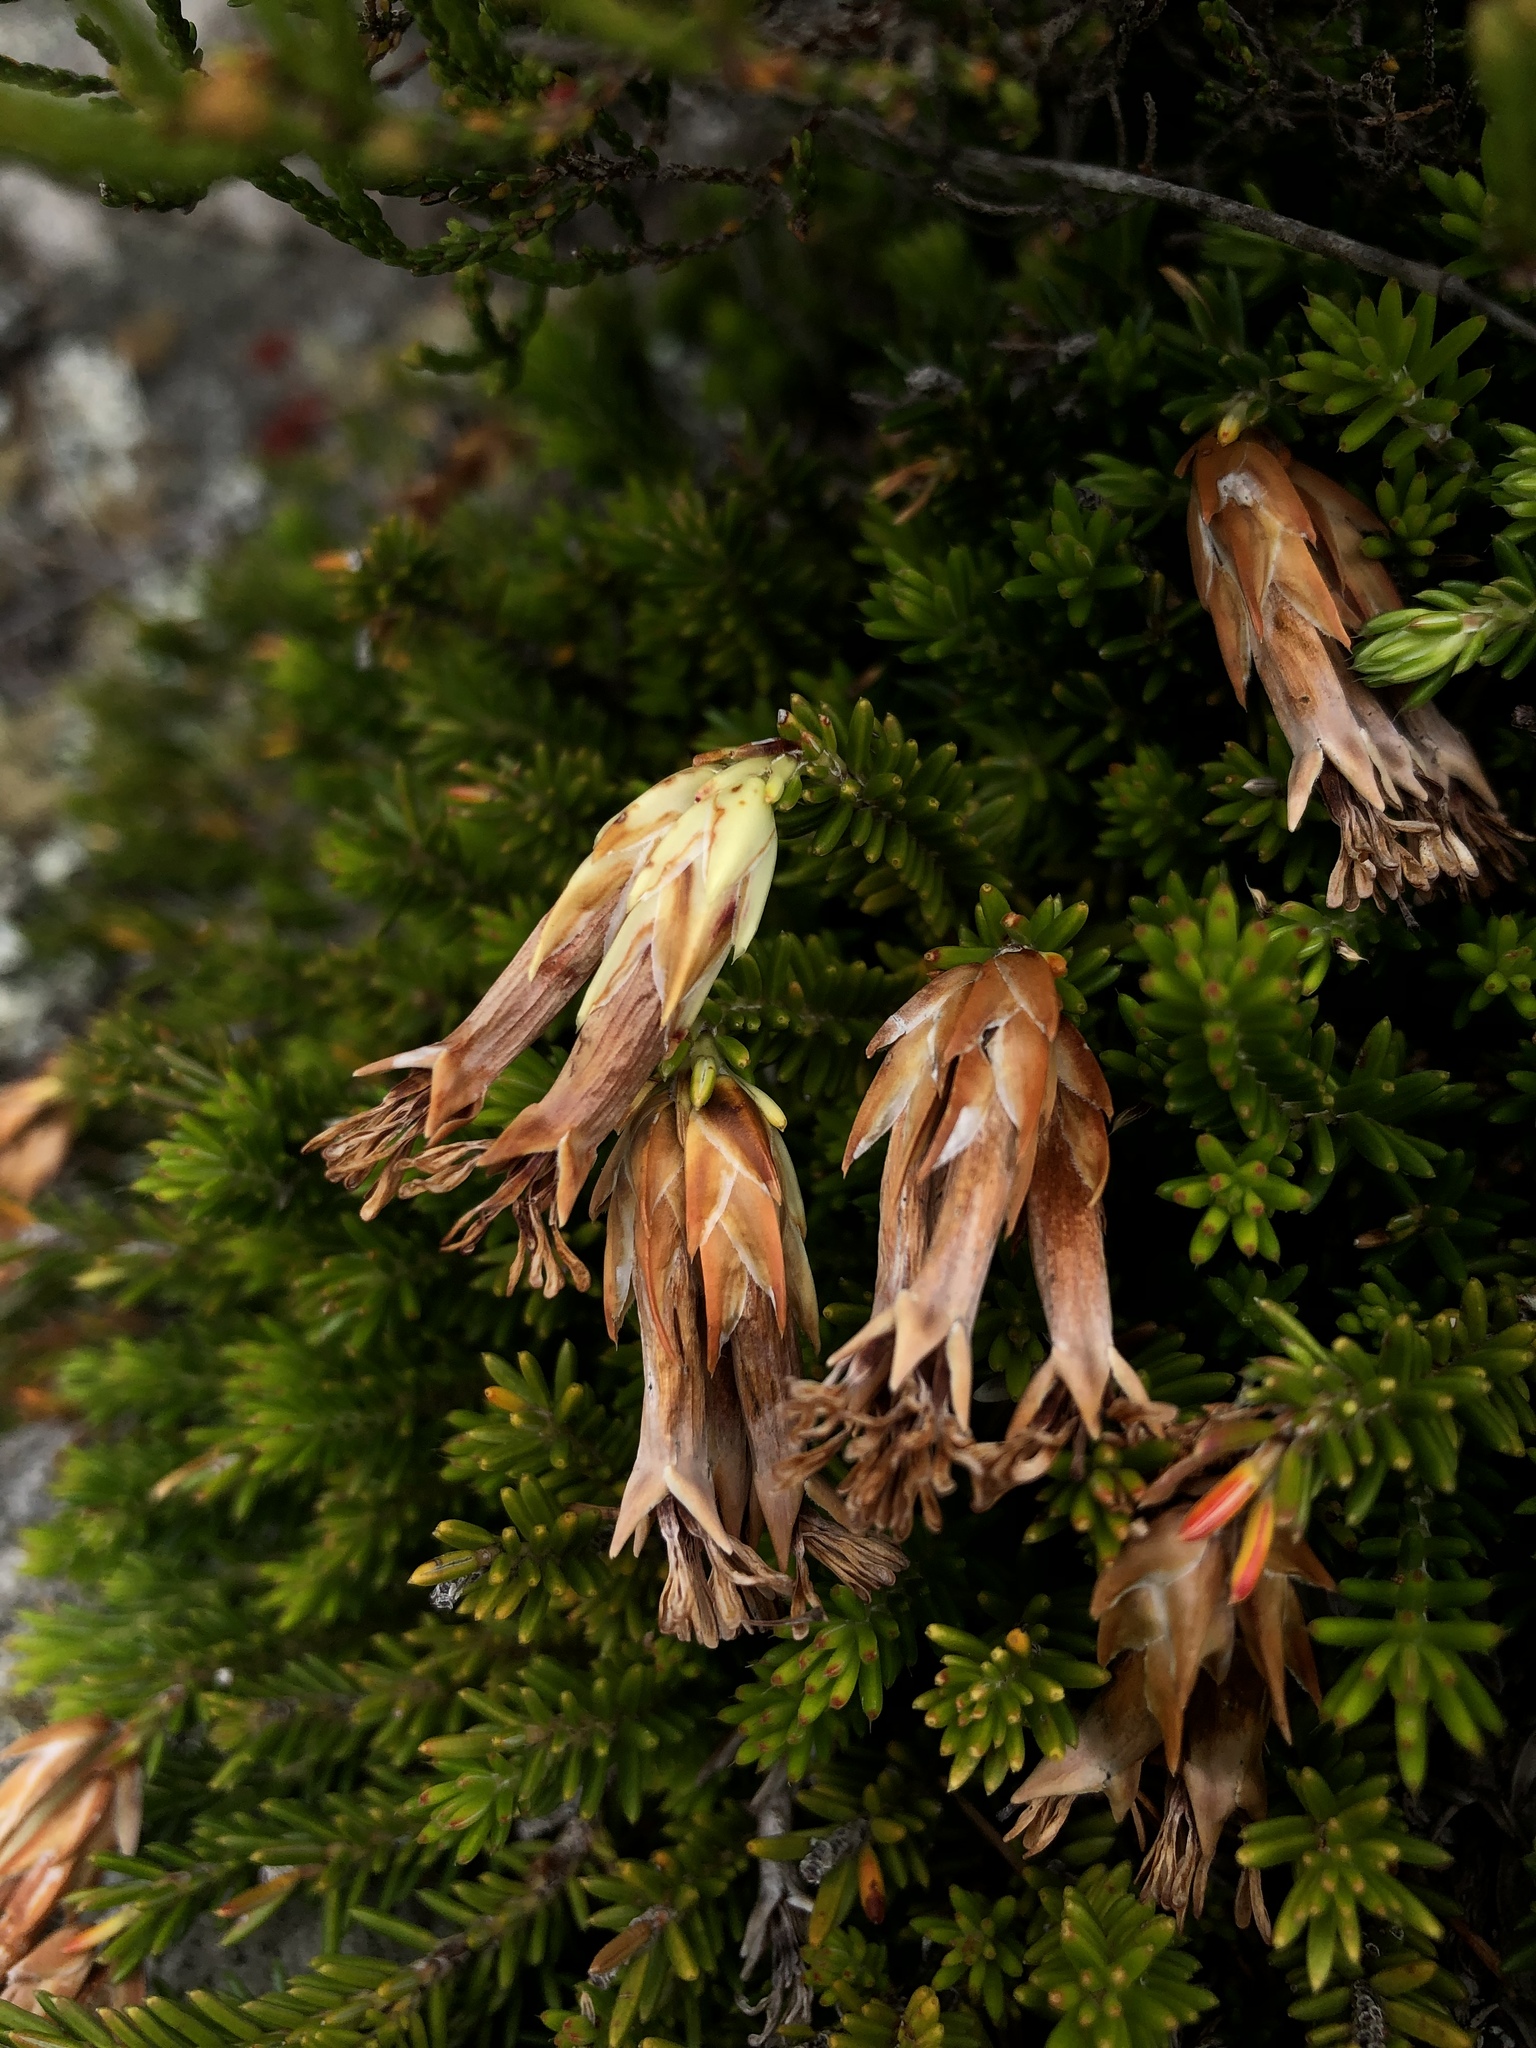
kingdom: Plantae
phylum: Tracheophyta
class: Magnoliopsida
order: Ericales
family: Ericaceae
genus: Erica
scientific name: Erica banksia
